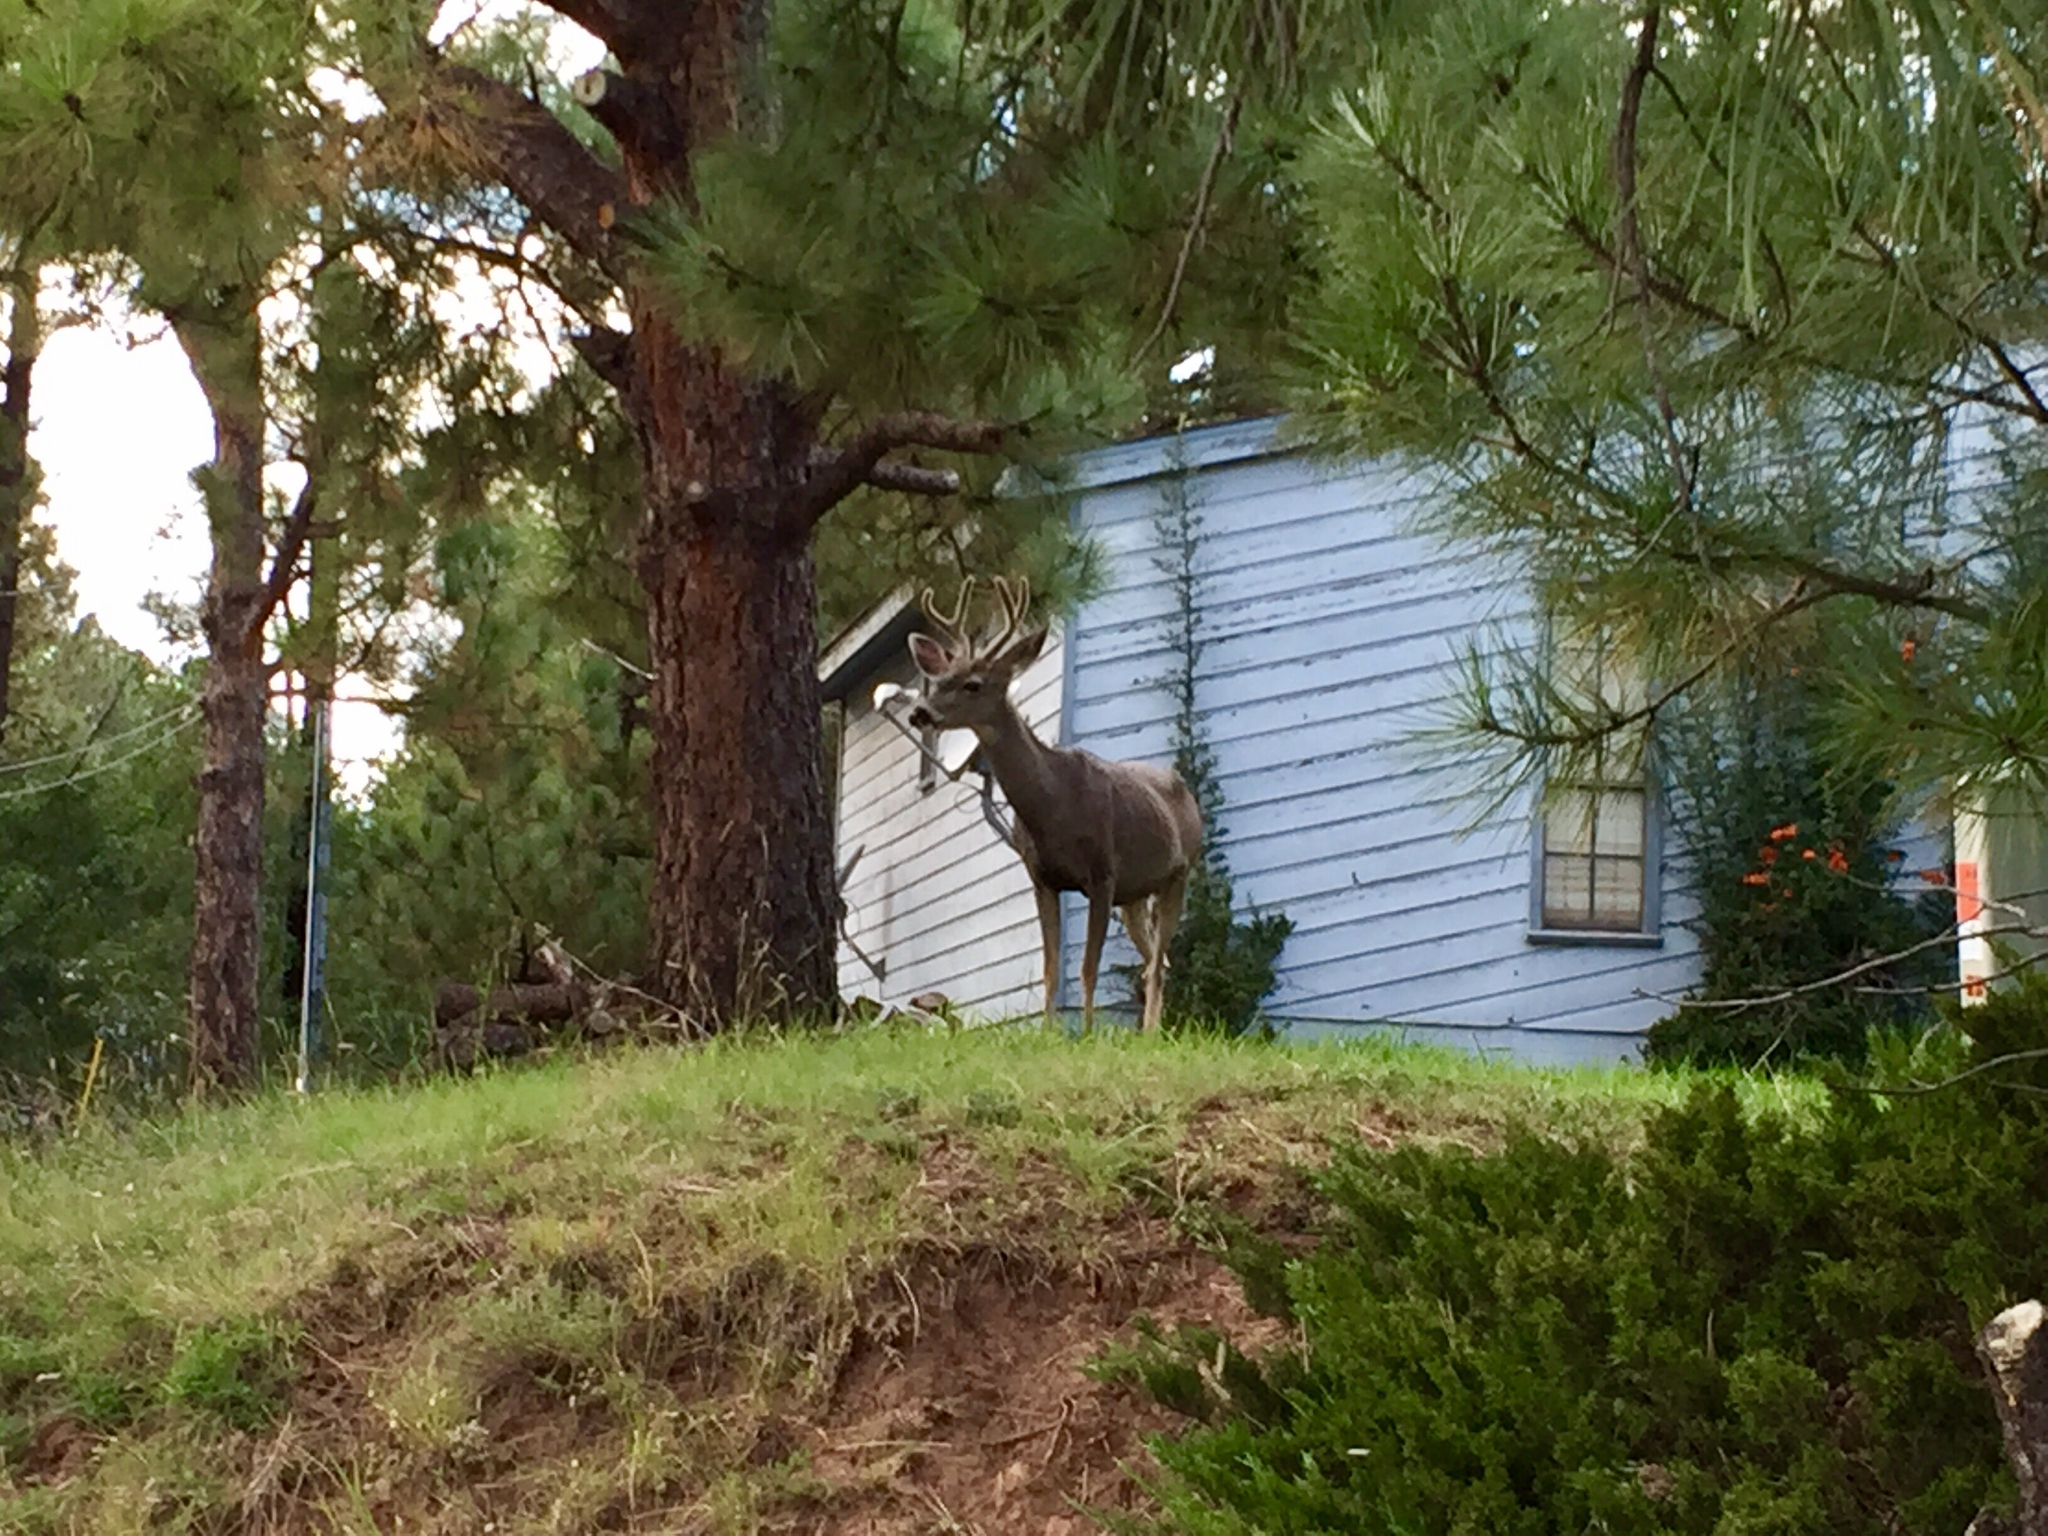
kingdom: Animalia
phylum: Chordata
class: Mammalia
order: Artiodactyla
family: Cervidae
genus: Odocoileus
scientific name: Odocoileus hemionus
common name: Mule deer
